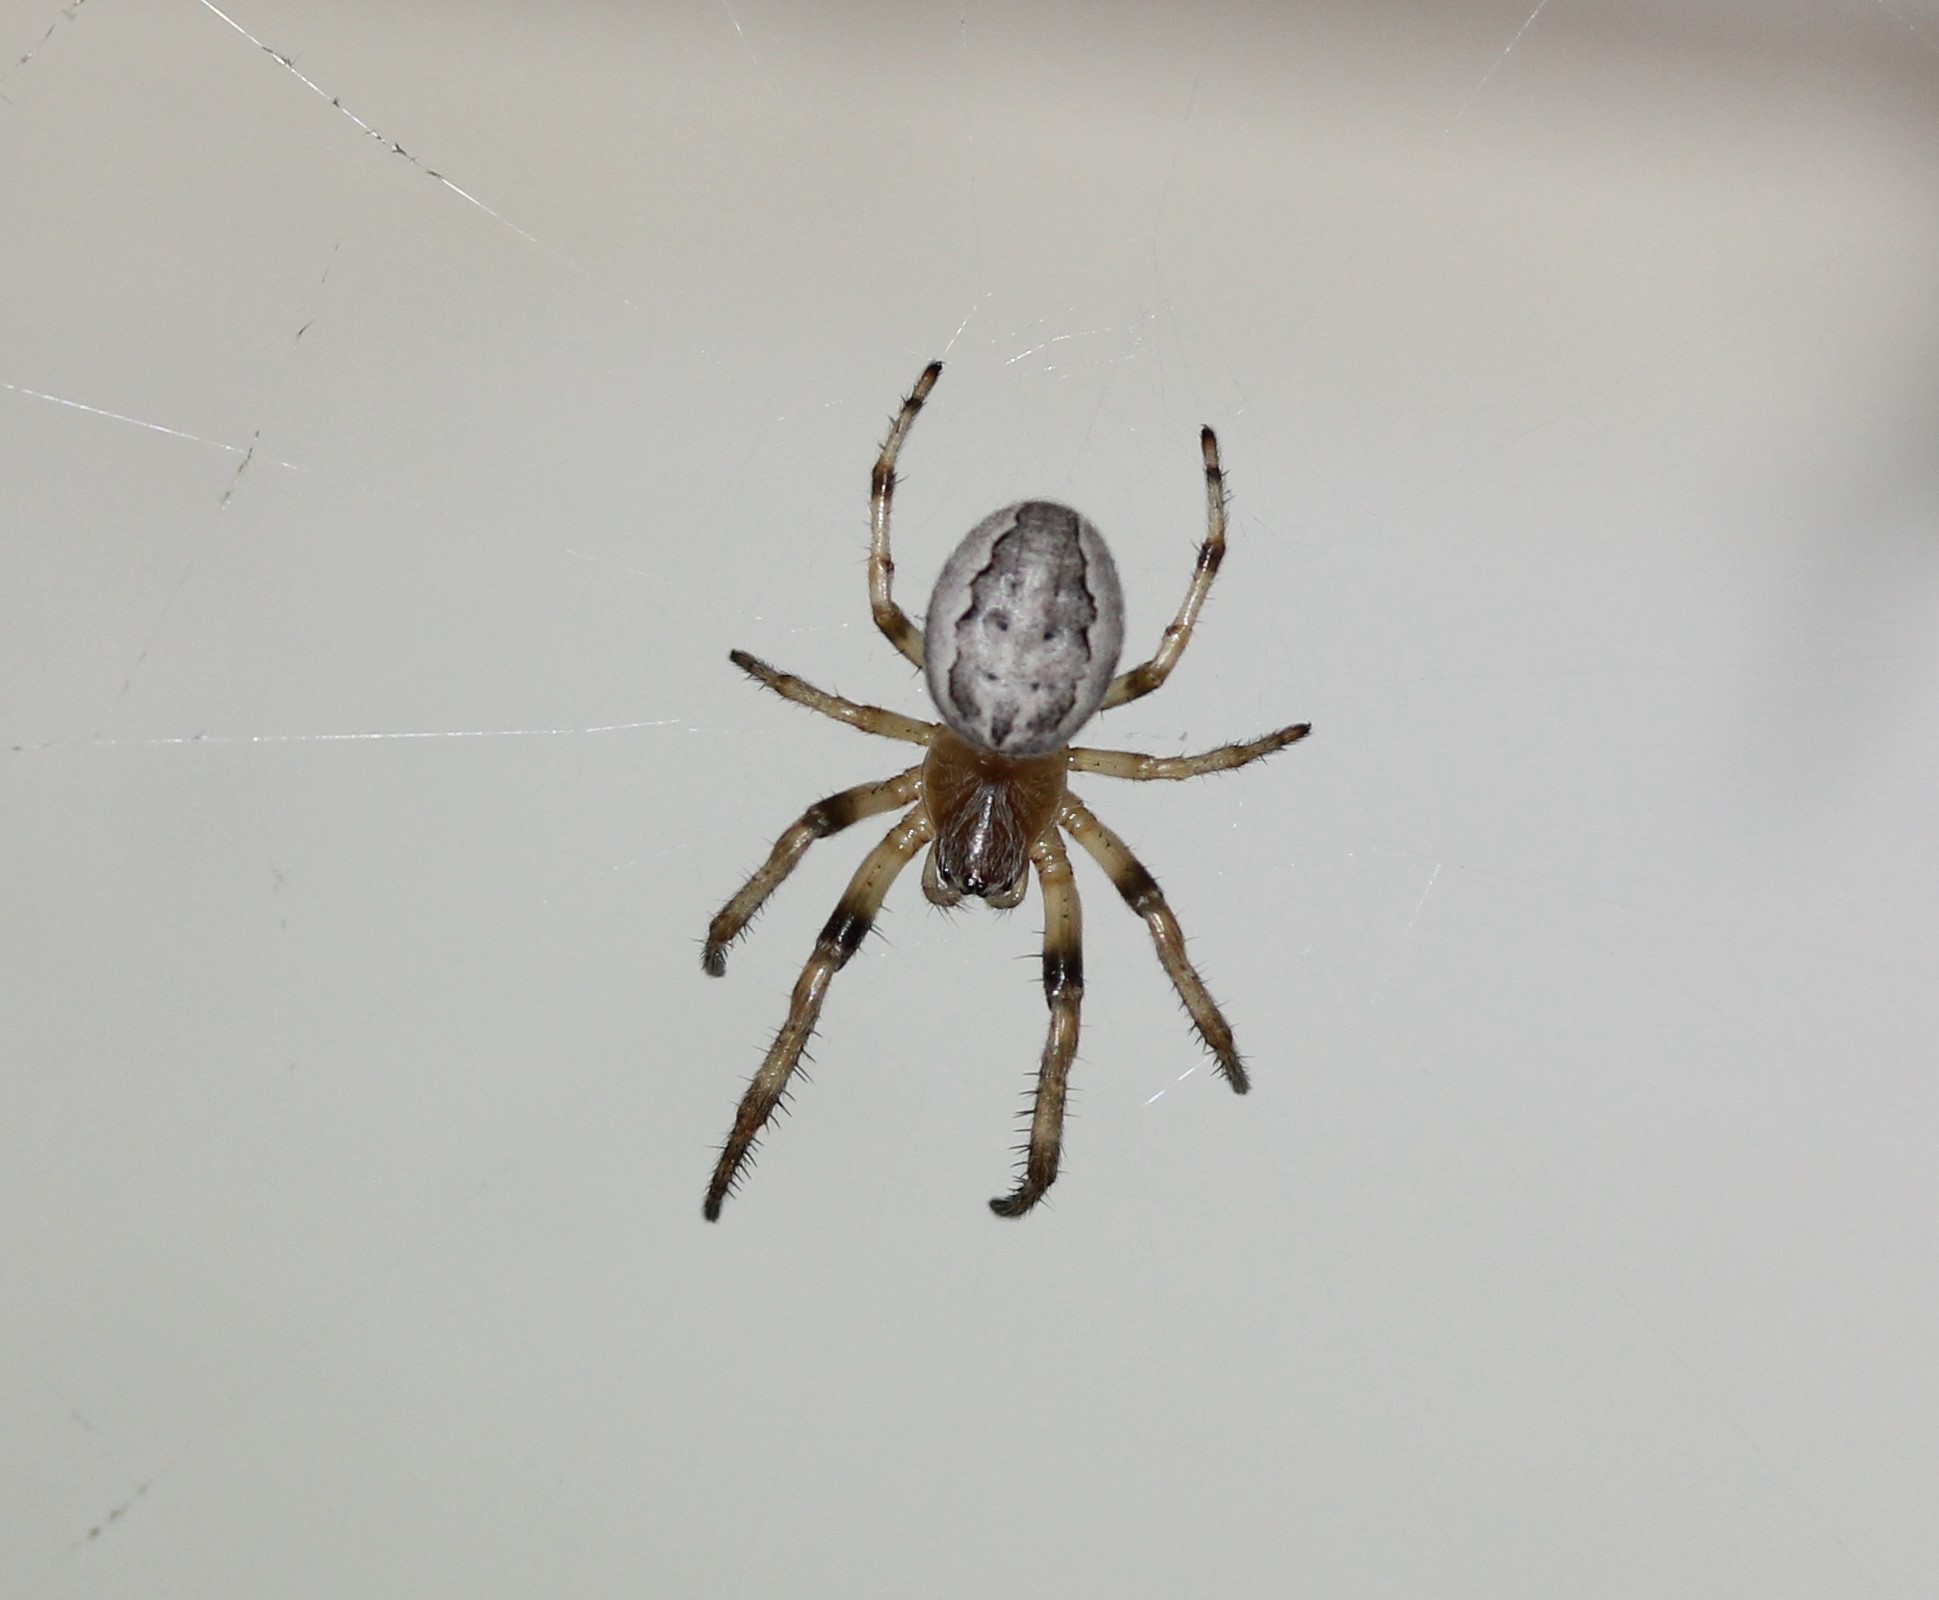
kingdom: Animalia
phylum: Arthropoda
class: Arachnida
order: Araneae
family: Araneidae
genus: Larinioides
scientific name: Larinioides cornutus
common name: Furrow orbweaver
